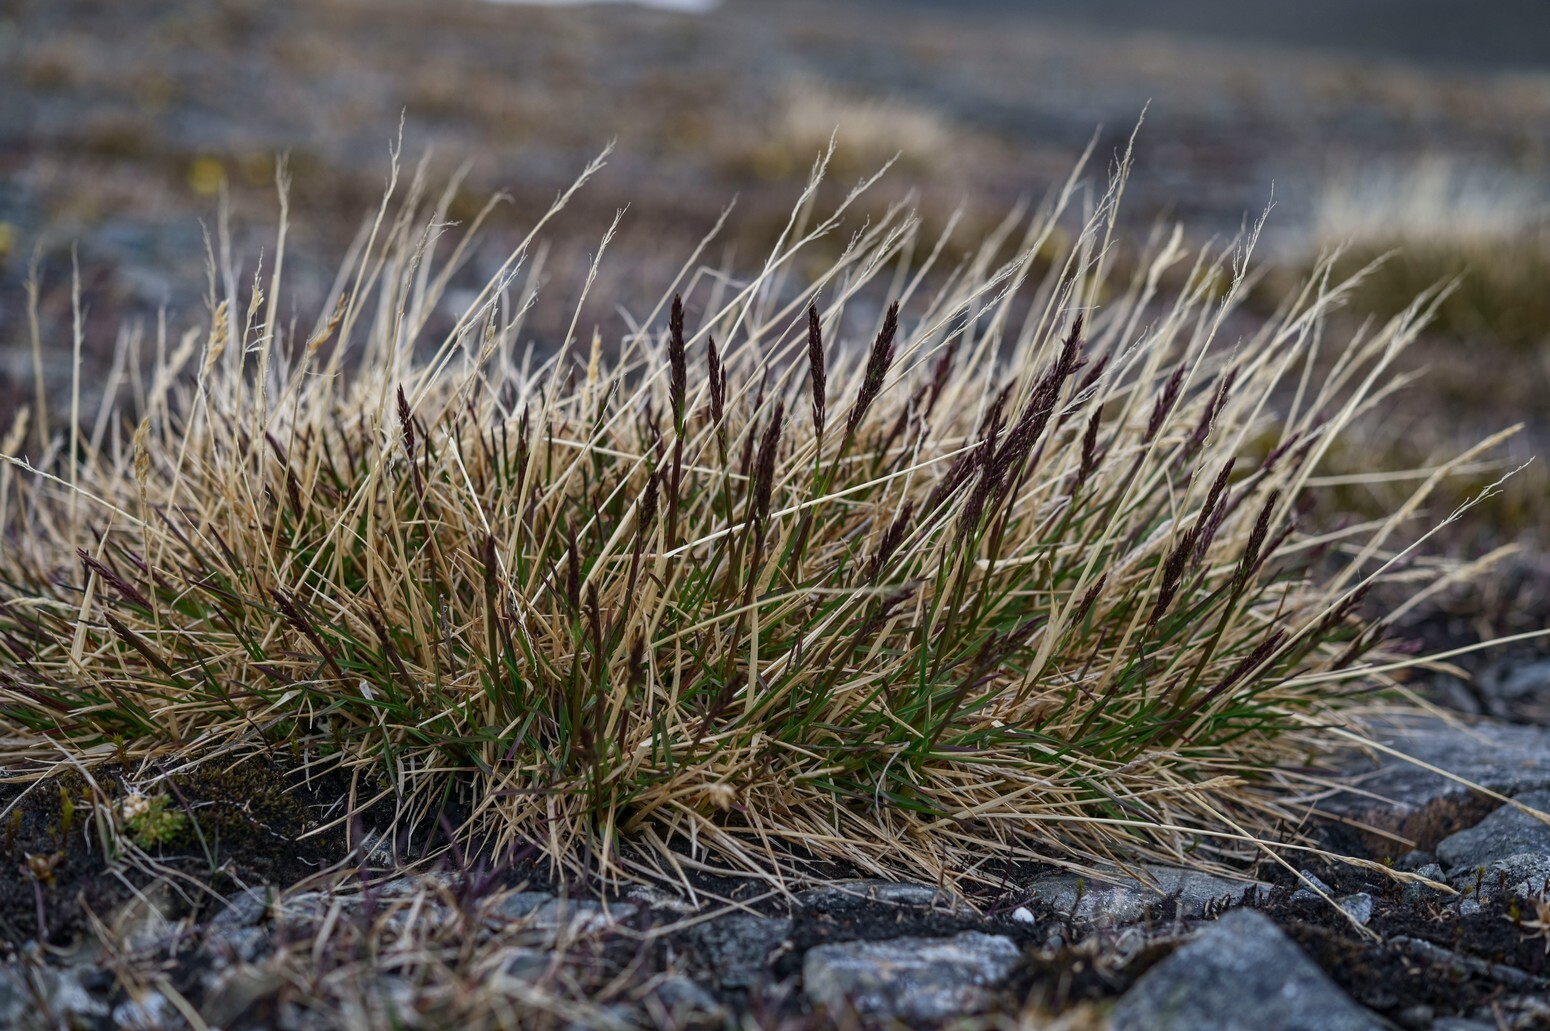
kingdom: Plantae
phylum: Tracheophyta
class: Liliopsida
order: Poales
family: Poaceae
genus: Deschampsia
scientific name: Deschampsia cespitosa
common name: Tufted hair-grass
